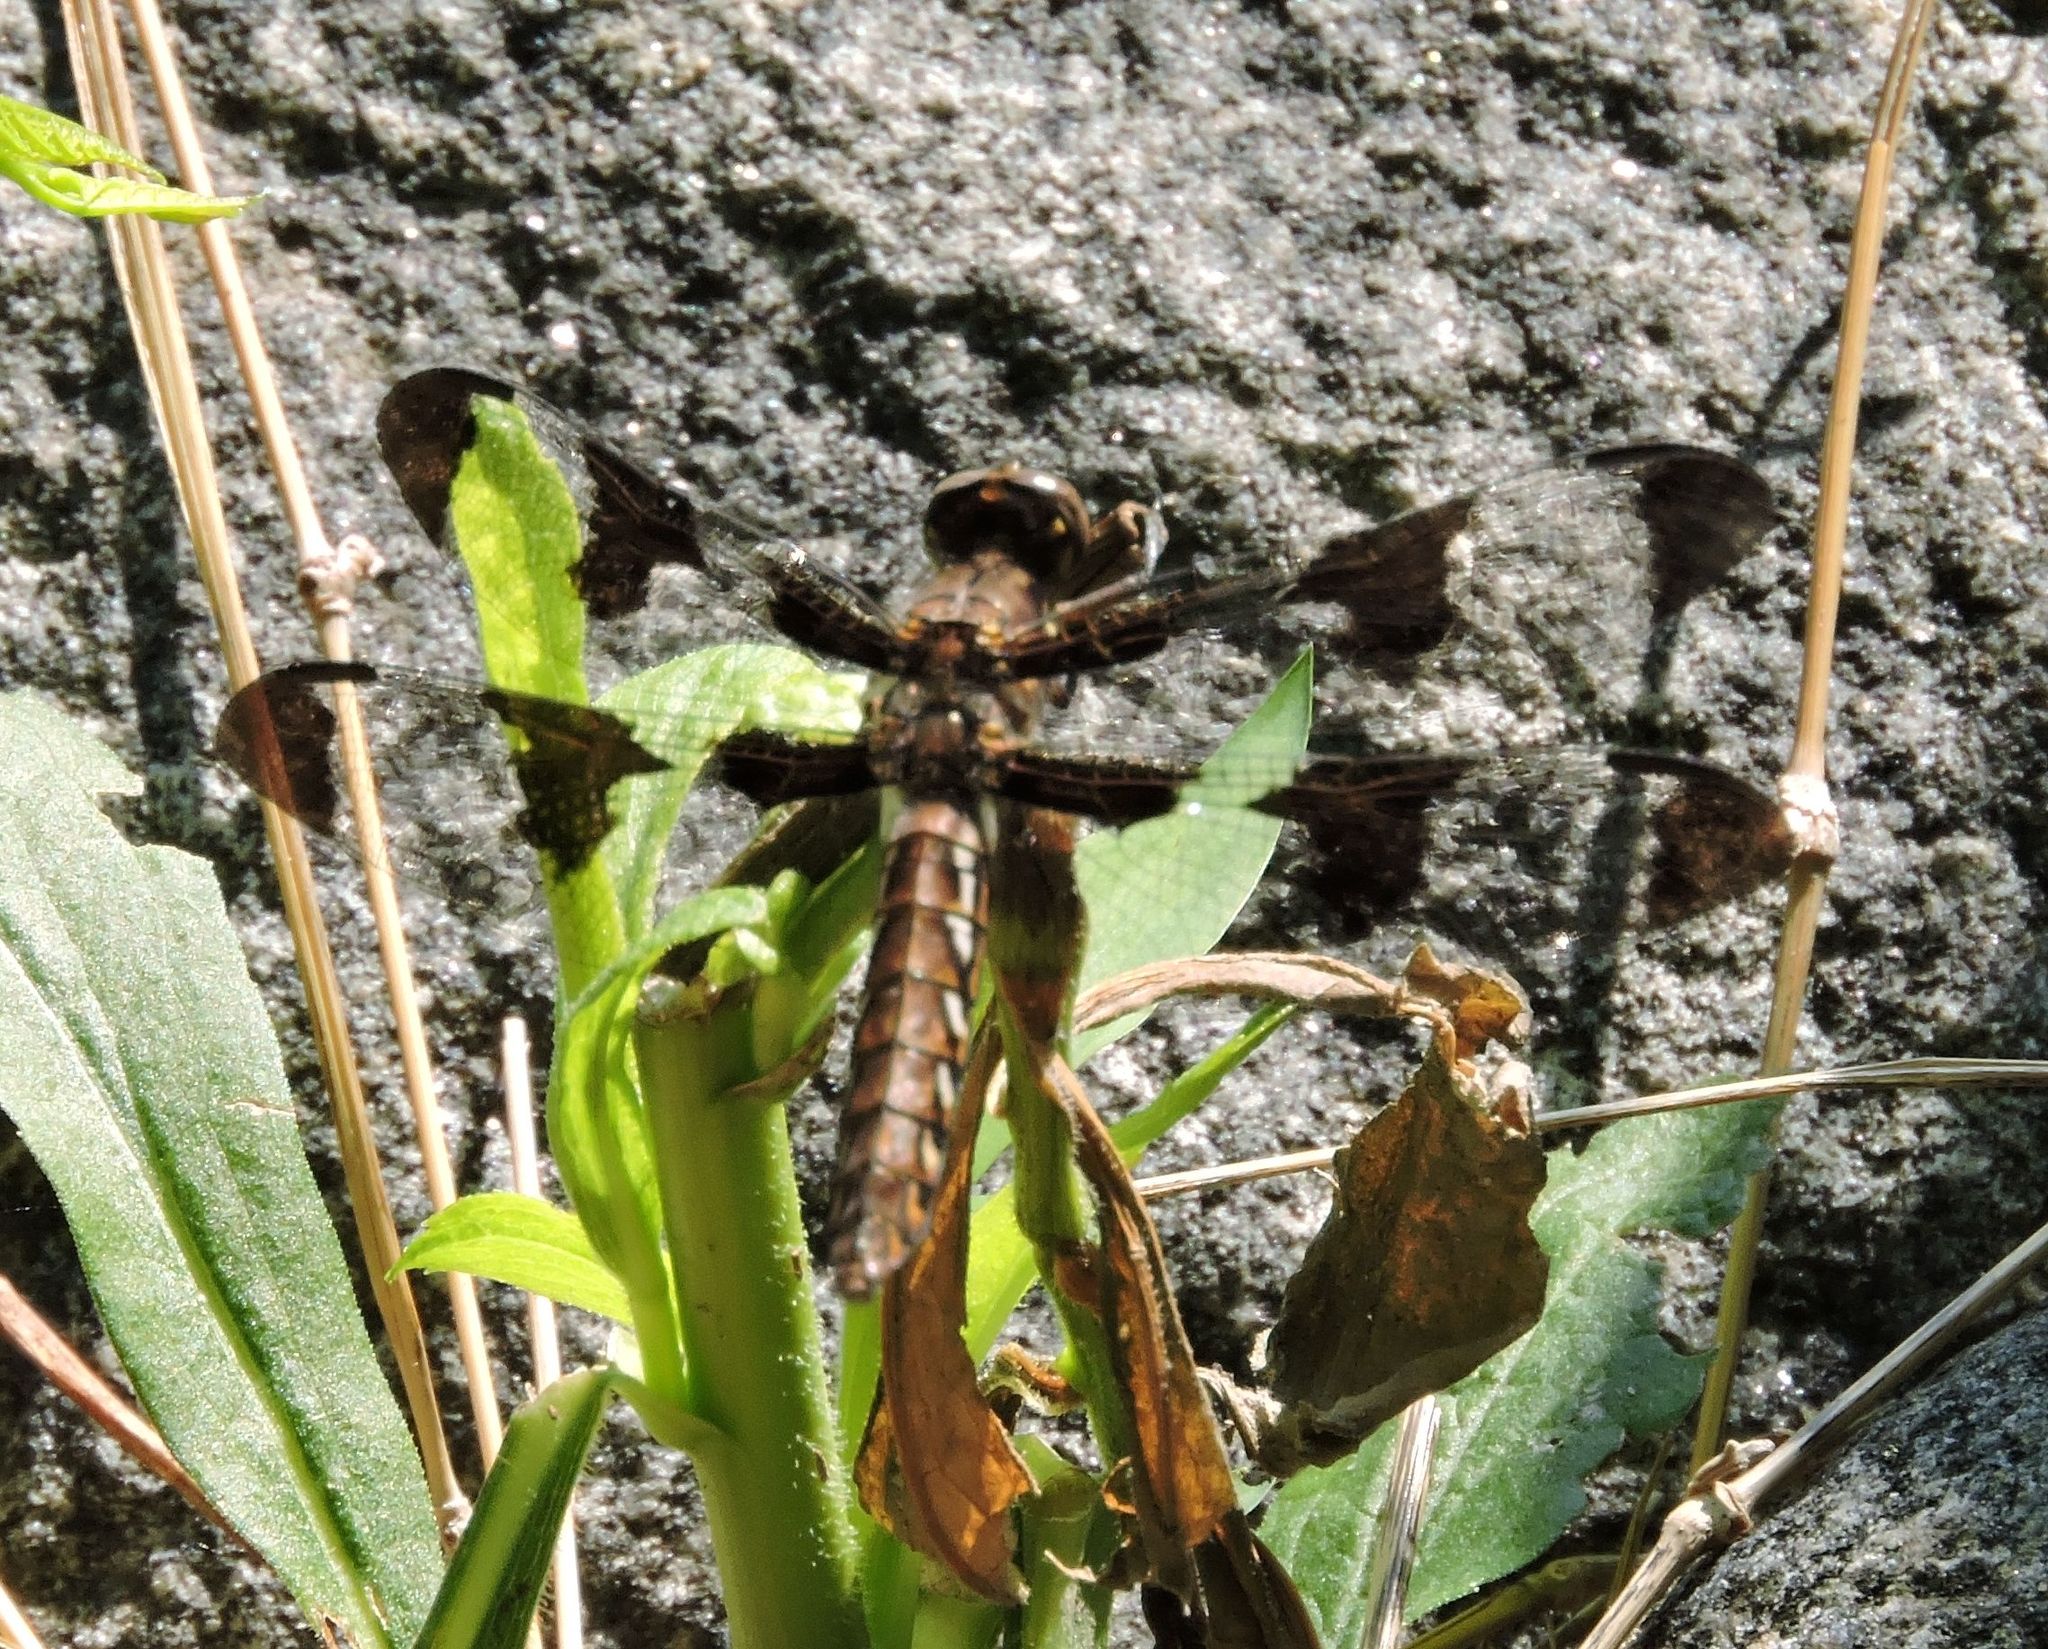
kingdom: Animalia
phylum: Arthropoda
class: Insecta
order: Odonata
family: Libellulidae
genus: Plathemis
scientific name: Plathemis lydia
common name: Common whitetail
